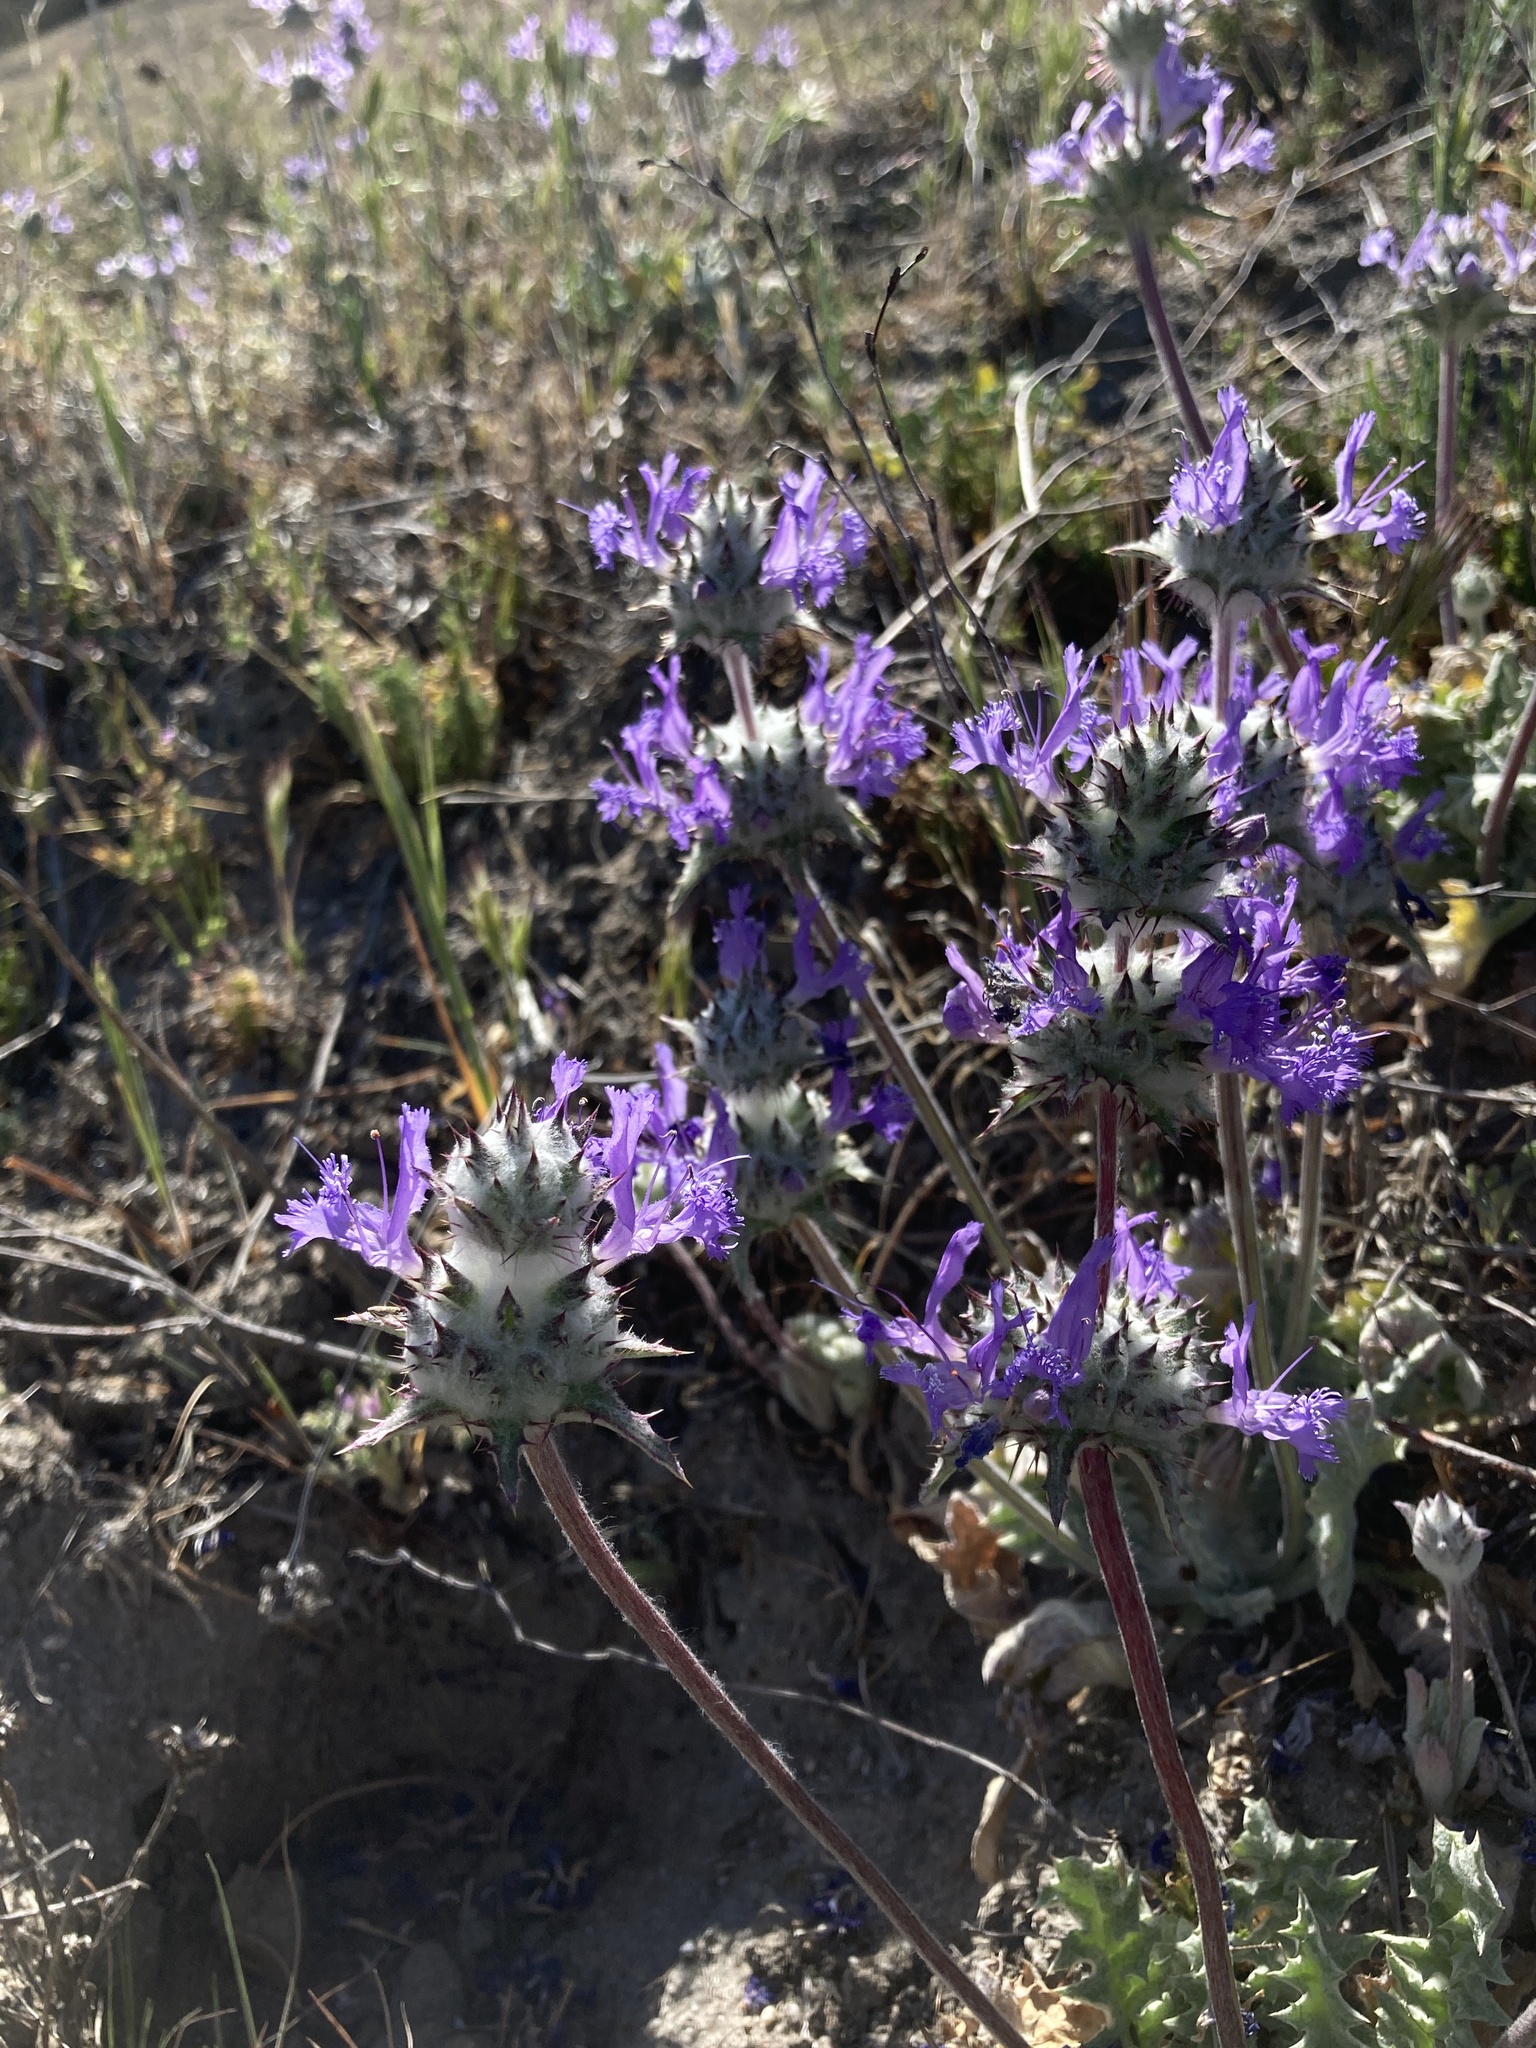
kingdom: Plantae
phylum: Tracheophyta
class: Magnoliopsida
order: Lamiales
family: Lamiaceae
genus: Salvia
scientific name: Salvia carduacea
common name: Thistle sage
